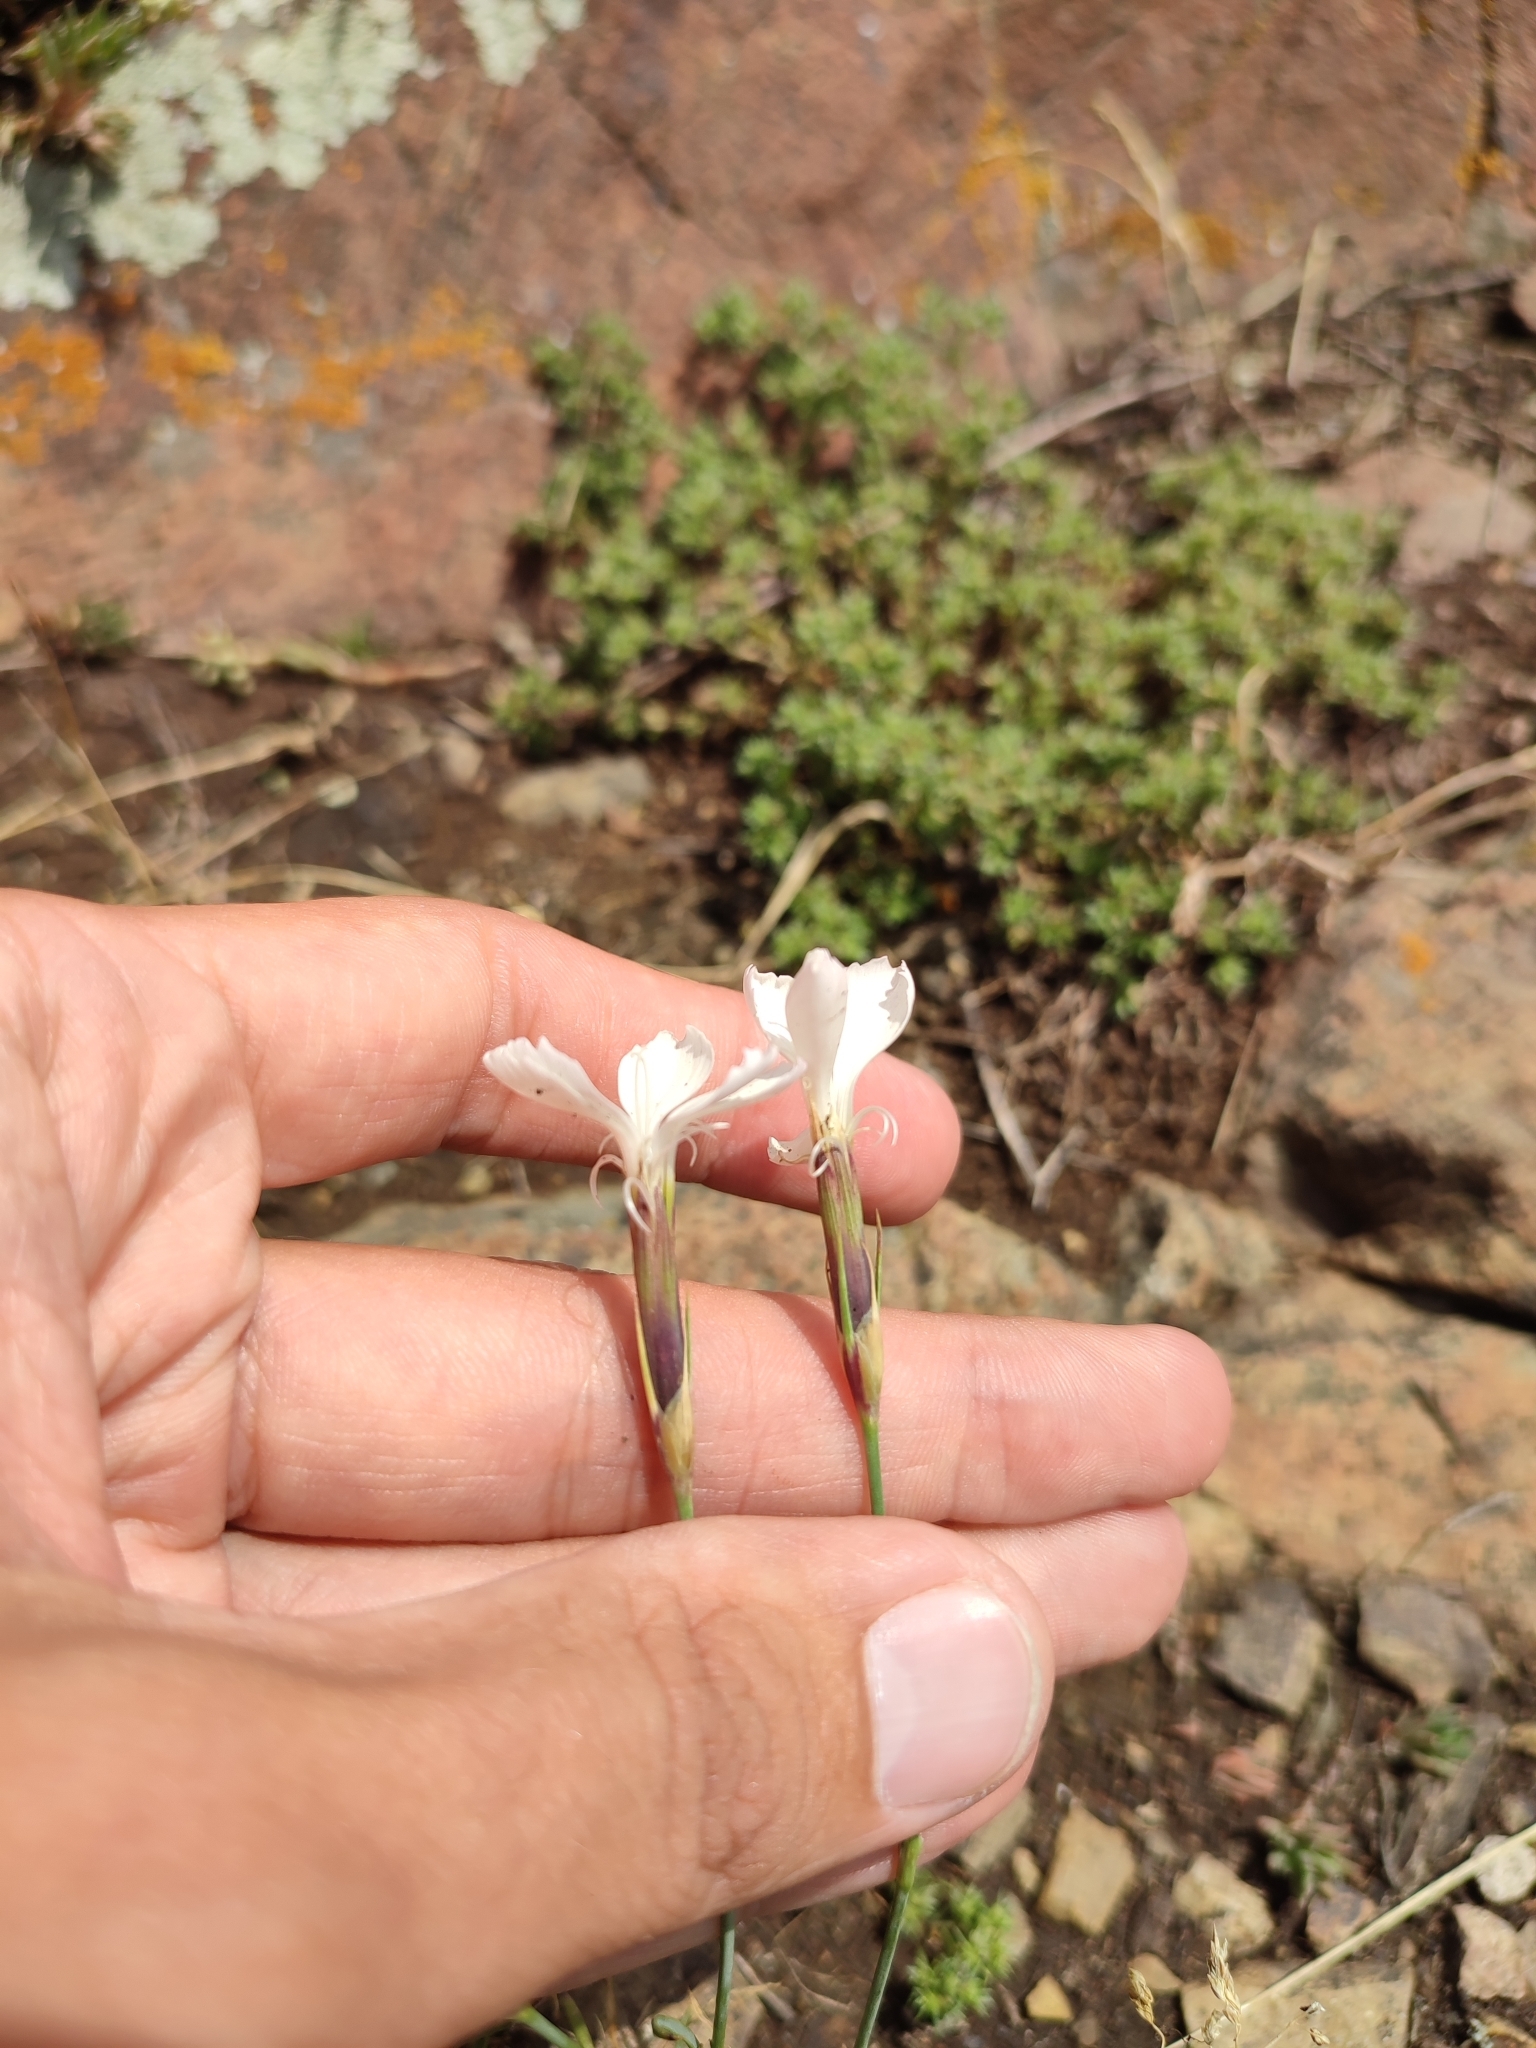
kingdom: Plantae
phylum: Tracheophyta
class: Magnoliopsida
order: Caryophyllales
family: Caryophyllaceae
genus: Dianthus
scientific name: Dianthus cretaceus
